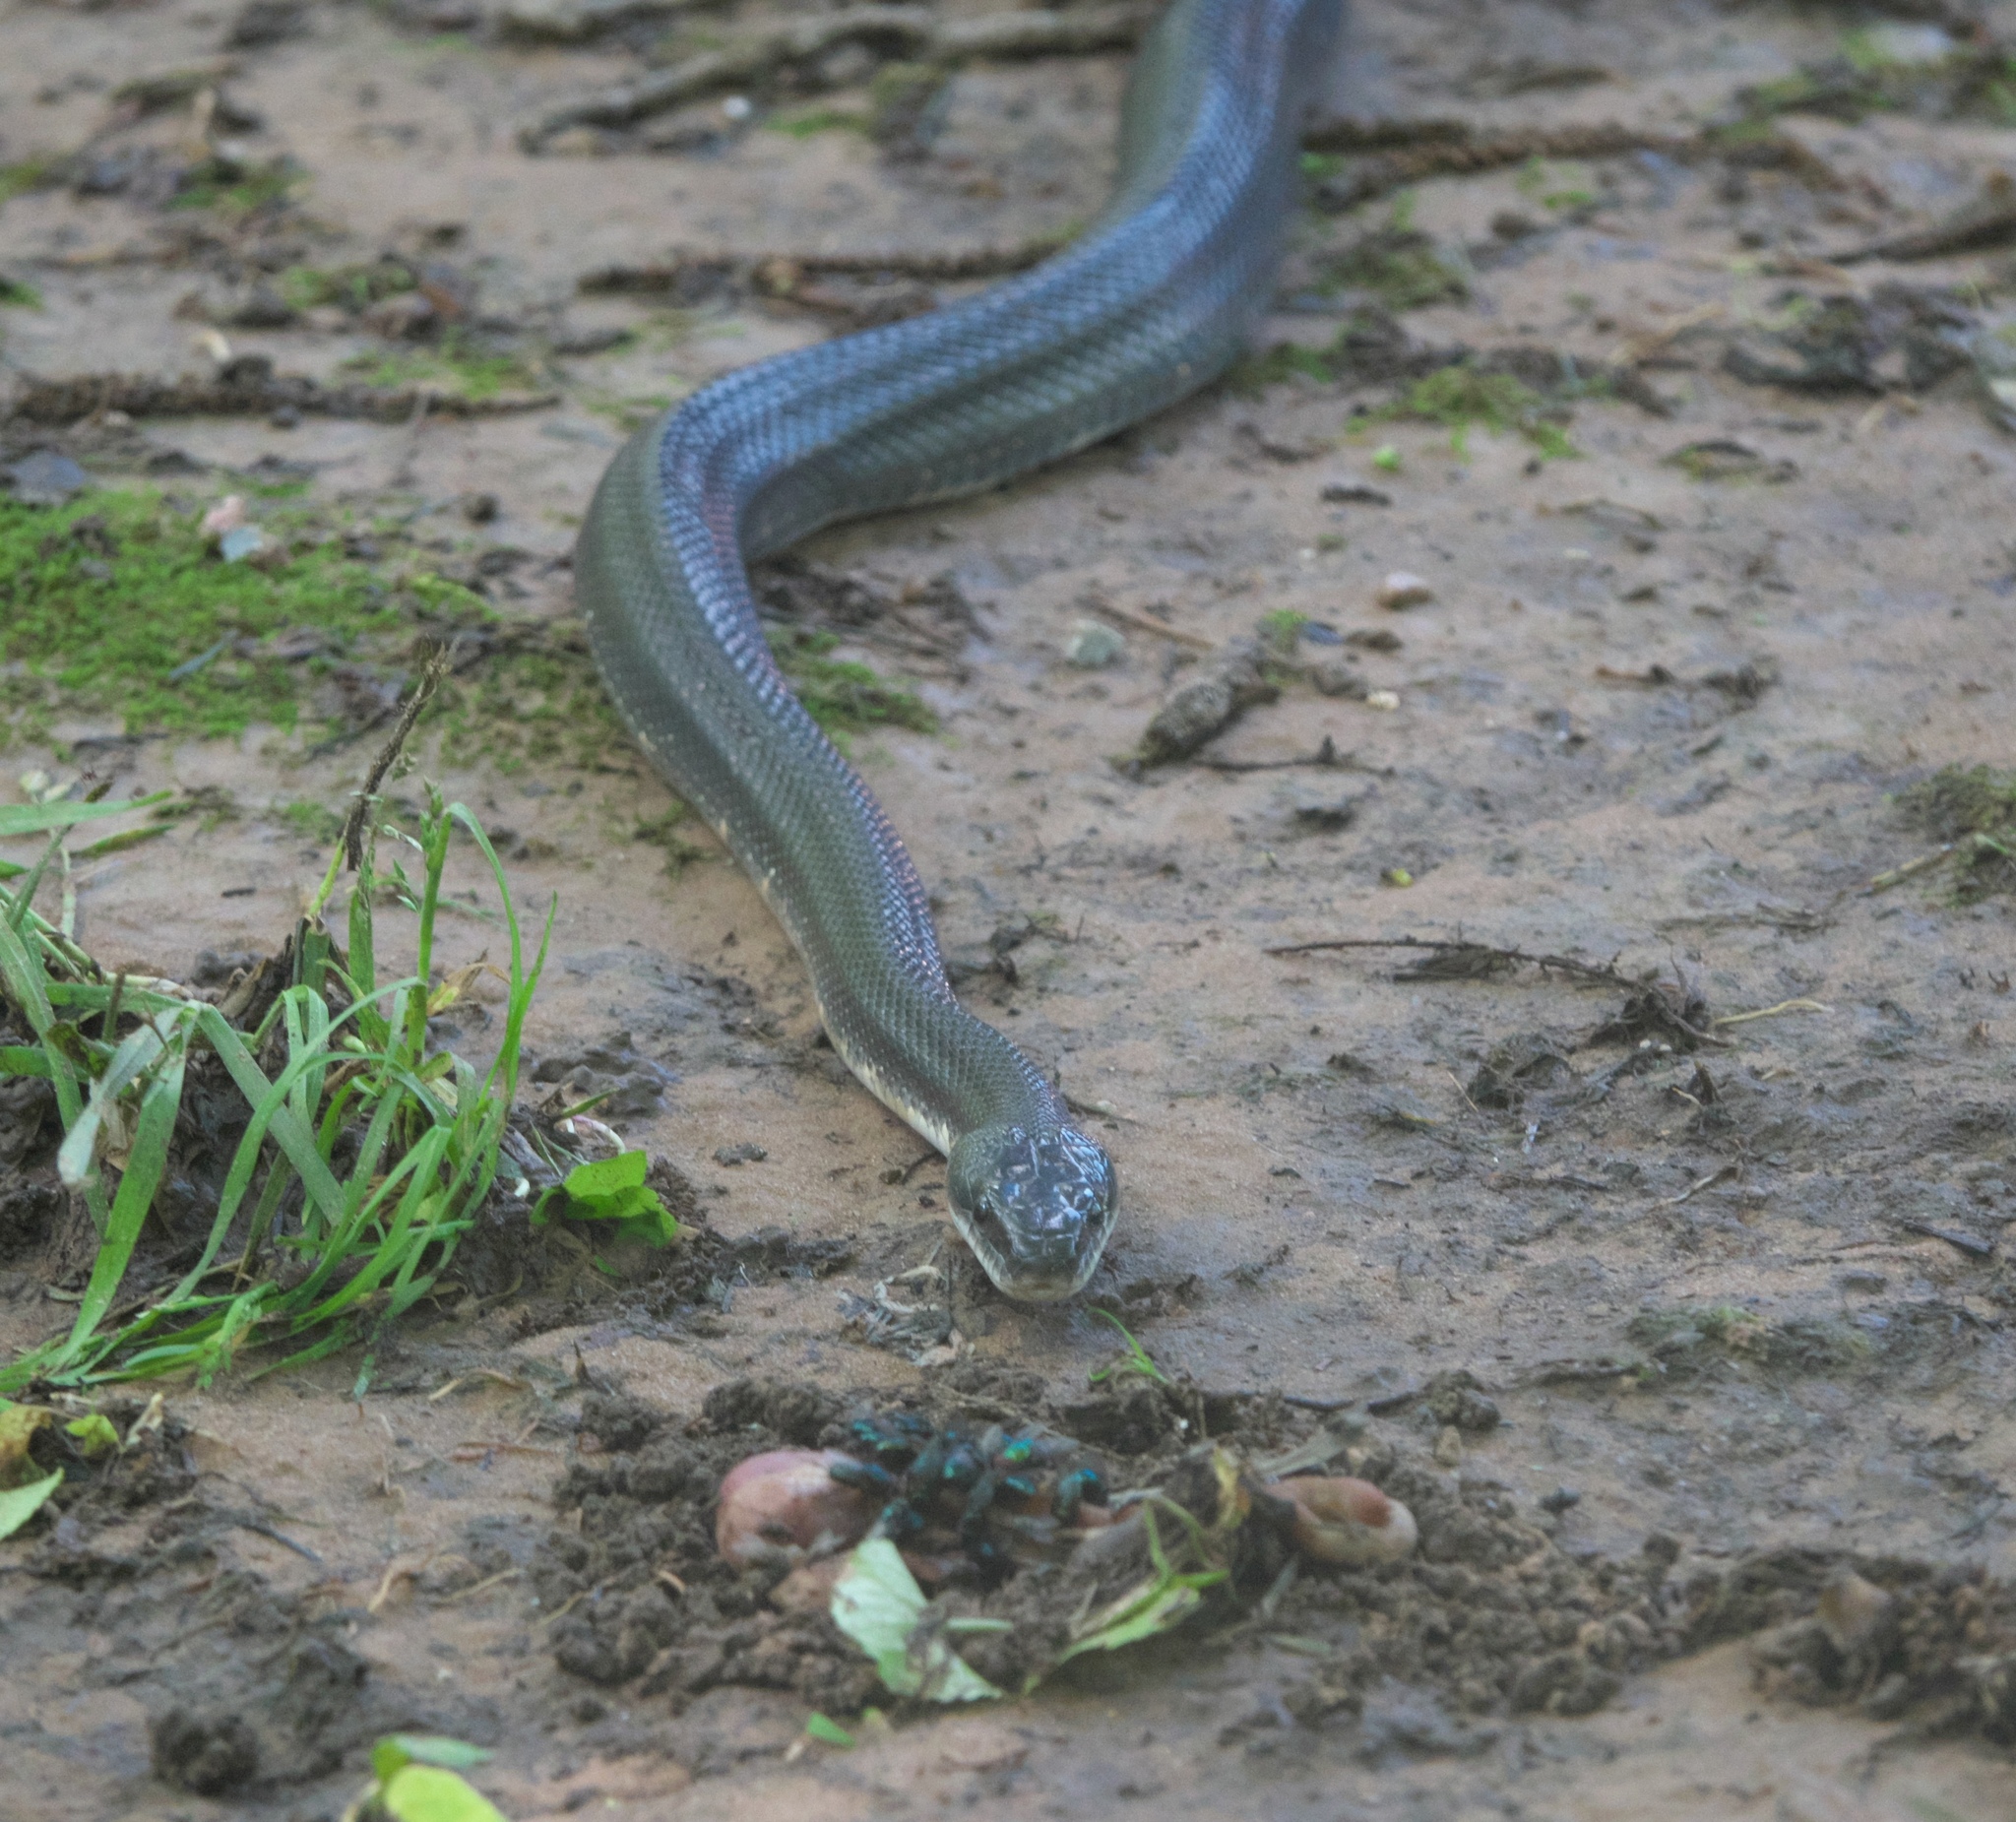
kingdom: Animalia
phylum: Chordata
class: Squamata
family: Colubridae
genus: Pantherophis
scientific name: Pantherophis obsoletus
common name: Black rat snake
